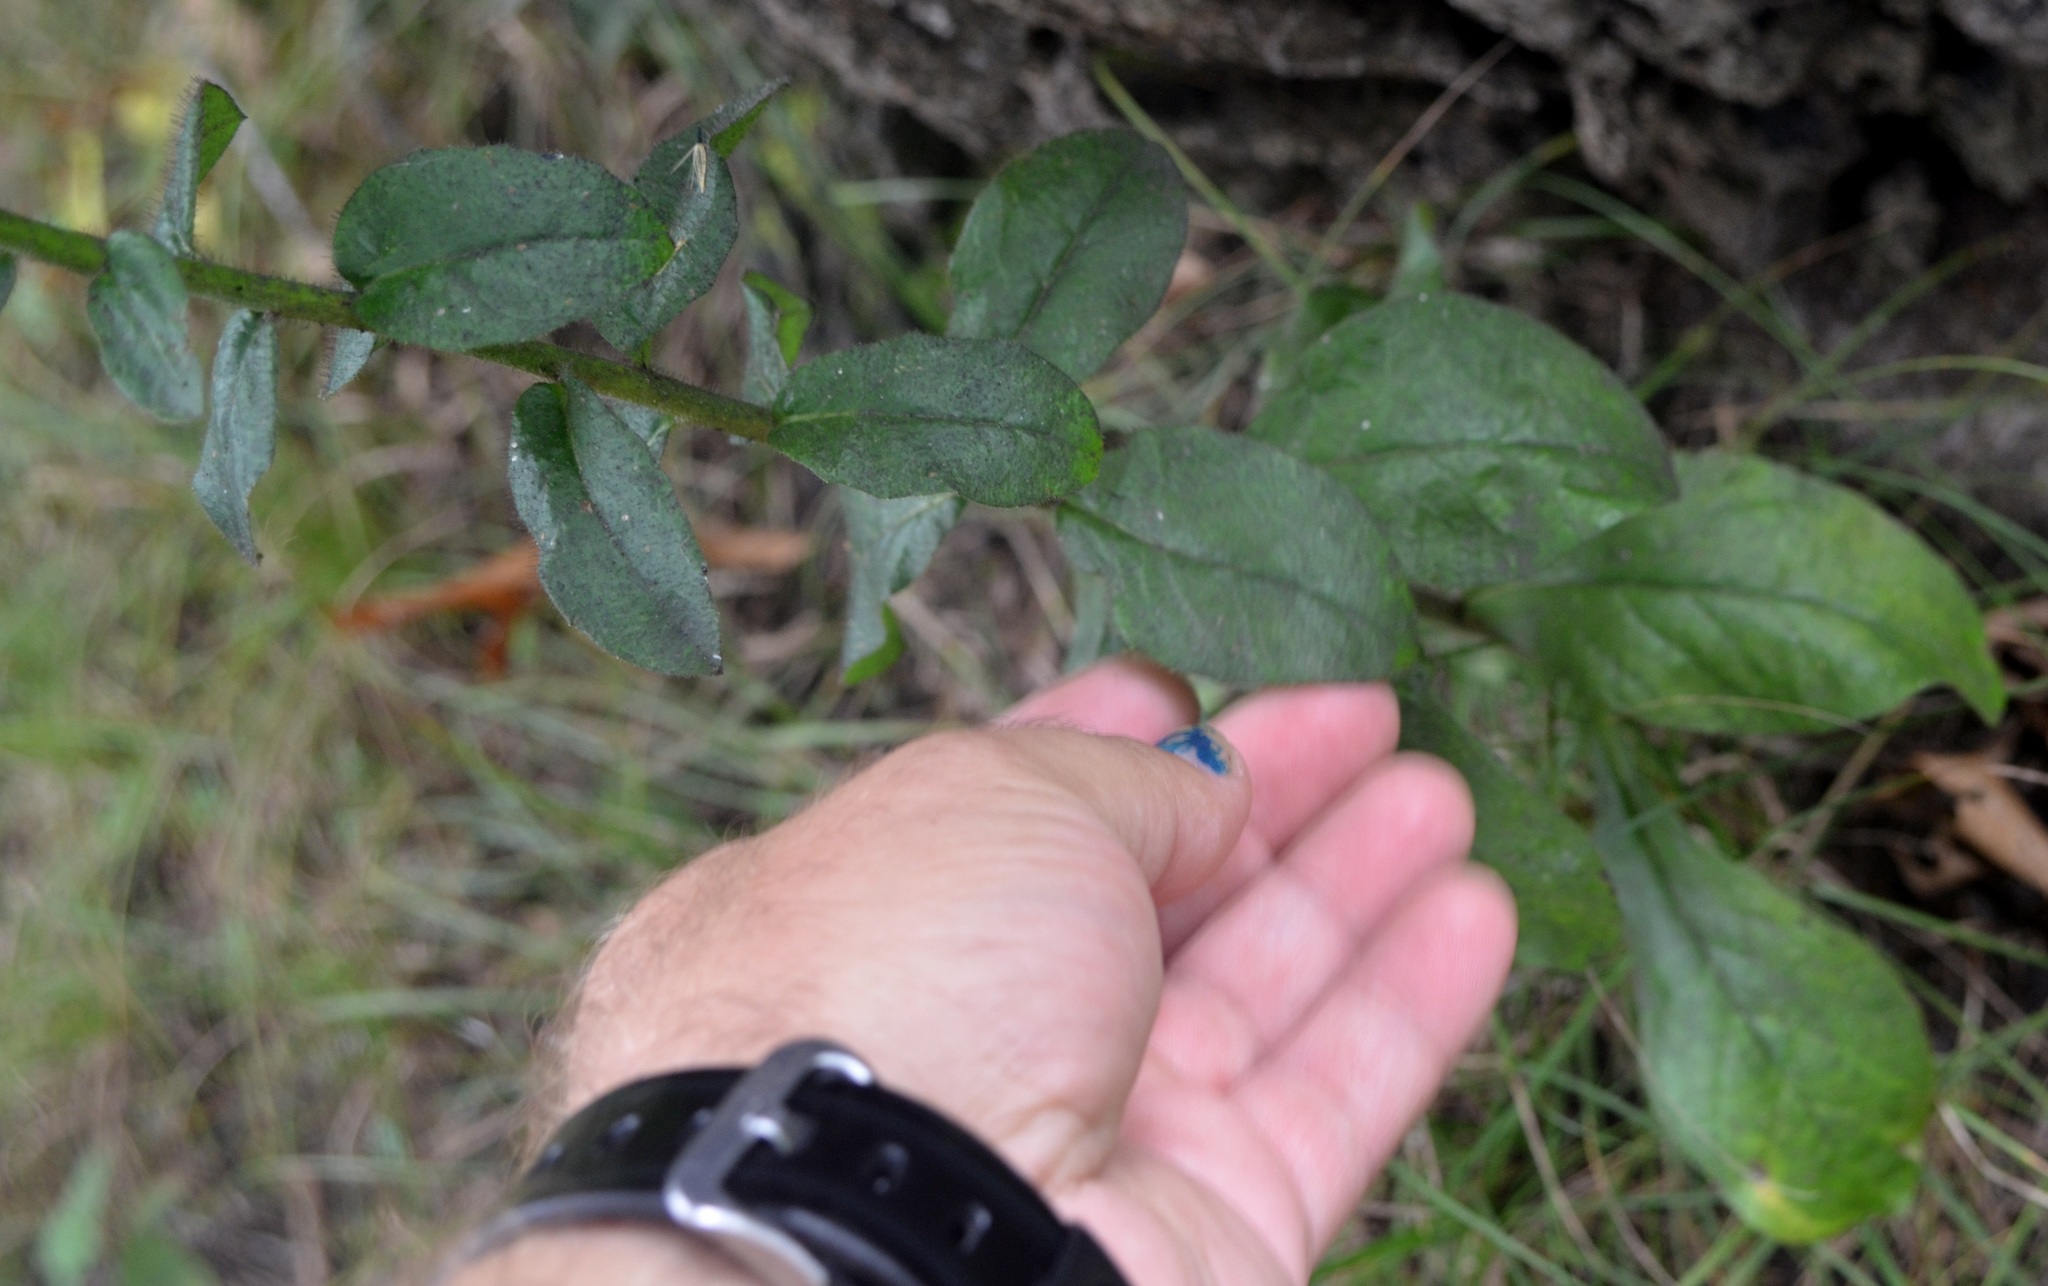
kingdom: Plantae
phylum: Tracheophyta
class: Magnoliopsida
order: Asterales
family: Asteraceae
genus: Hieracium
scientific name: Hieracium scabrum
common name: Rough hawkweed
